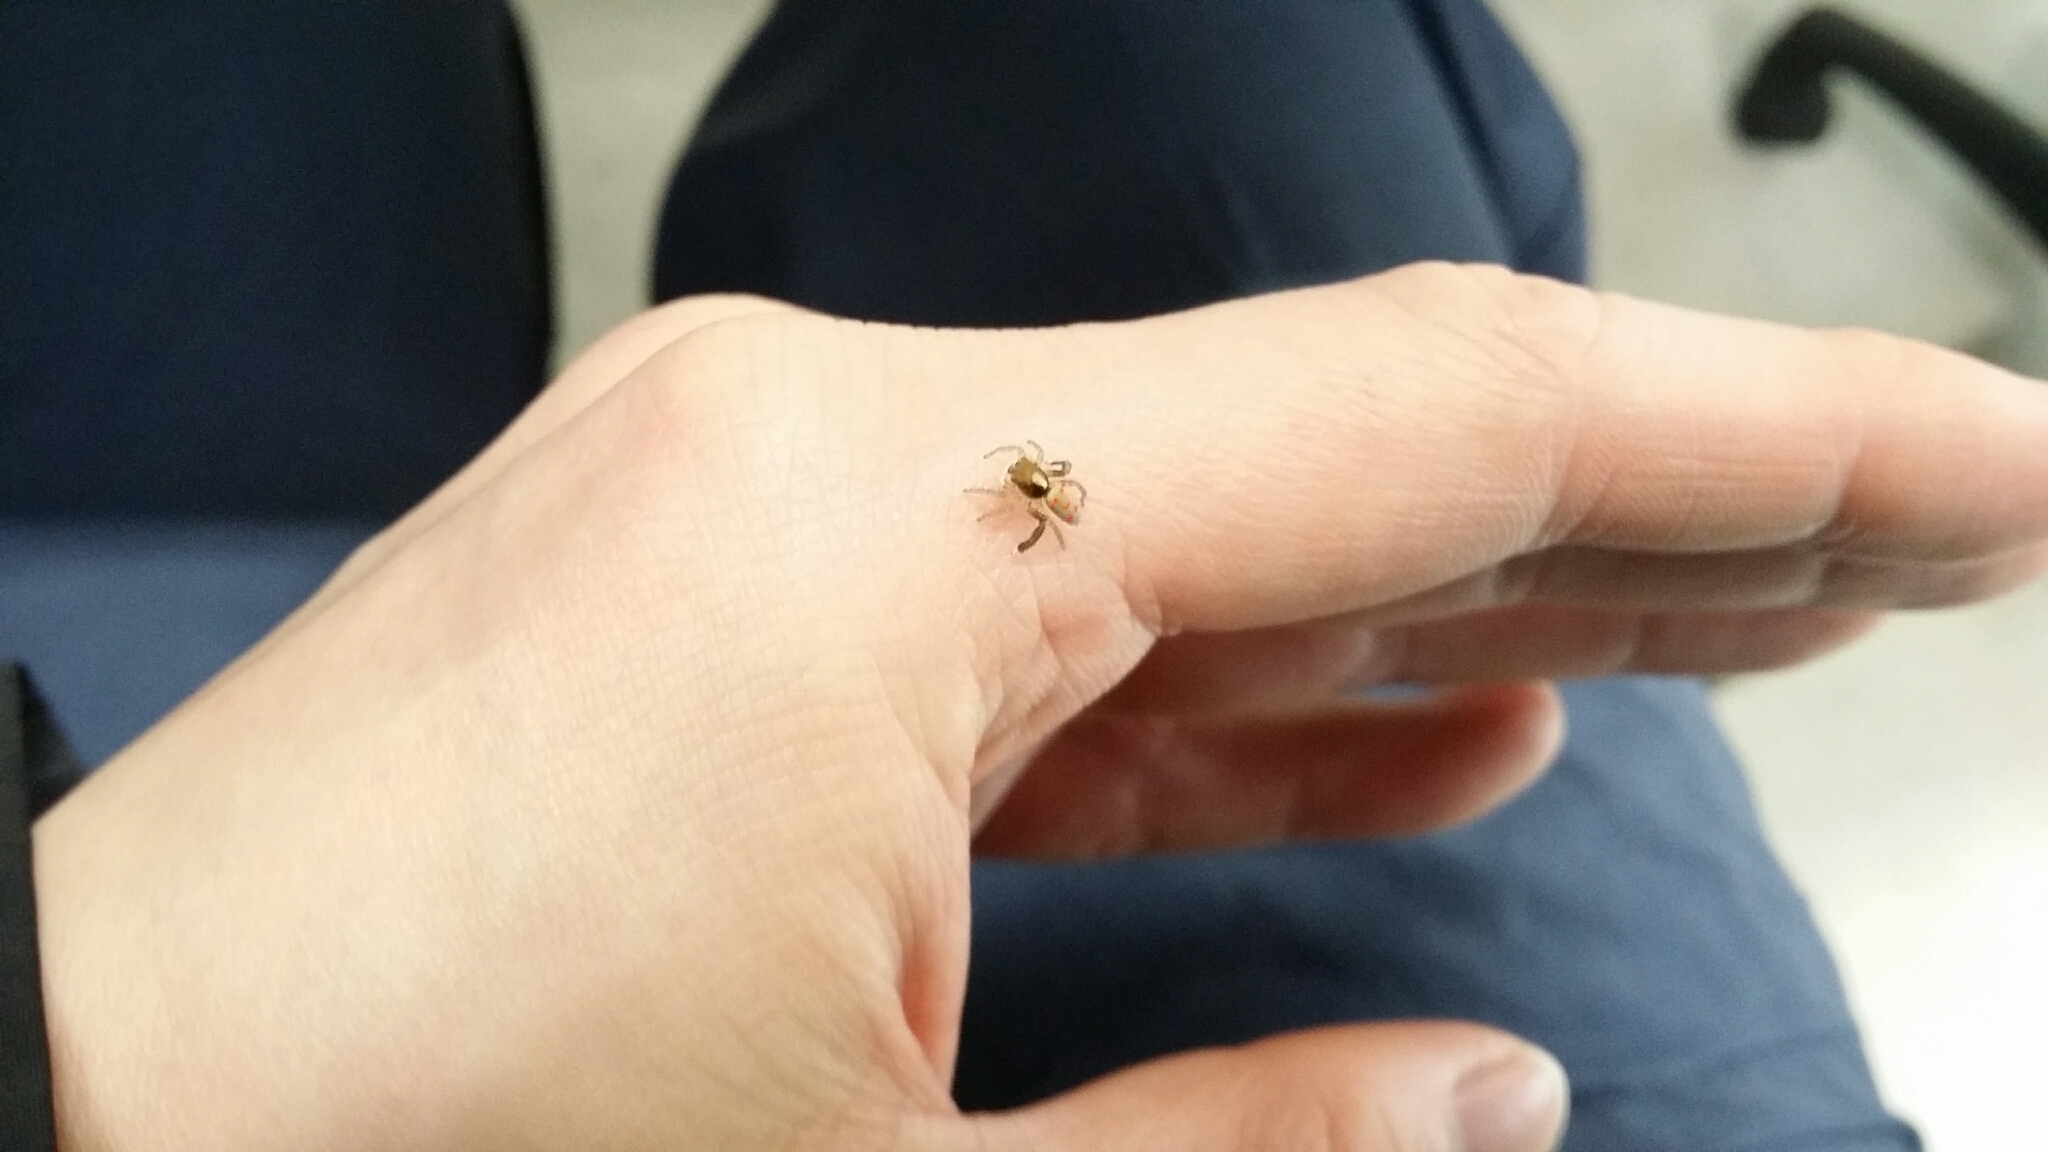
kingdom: Animalia
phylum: Arthropoda
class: Arachnida
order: Araneae
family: Salticidae
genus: Maratus
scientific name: Maratus pavonis
